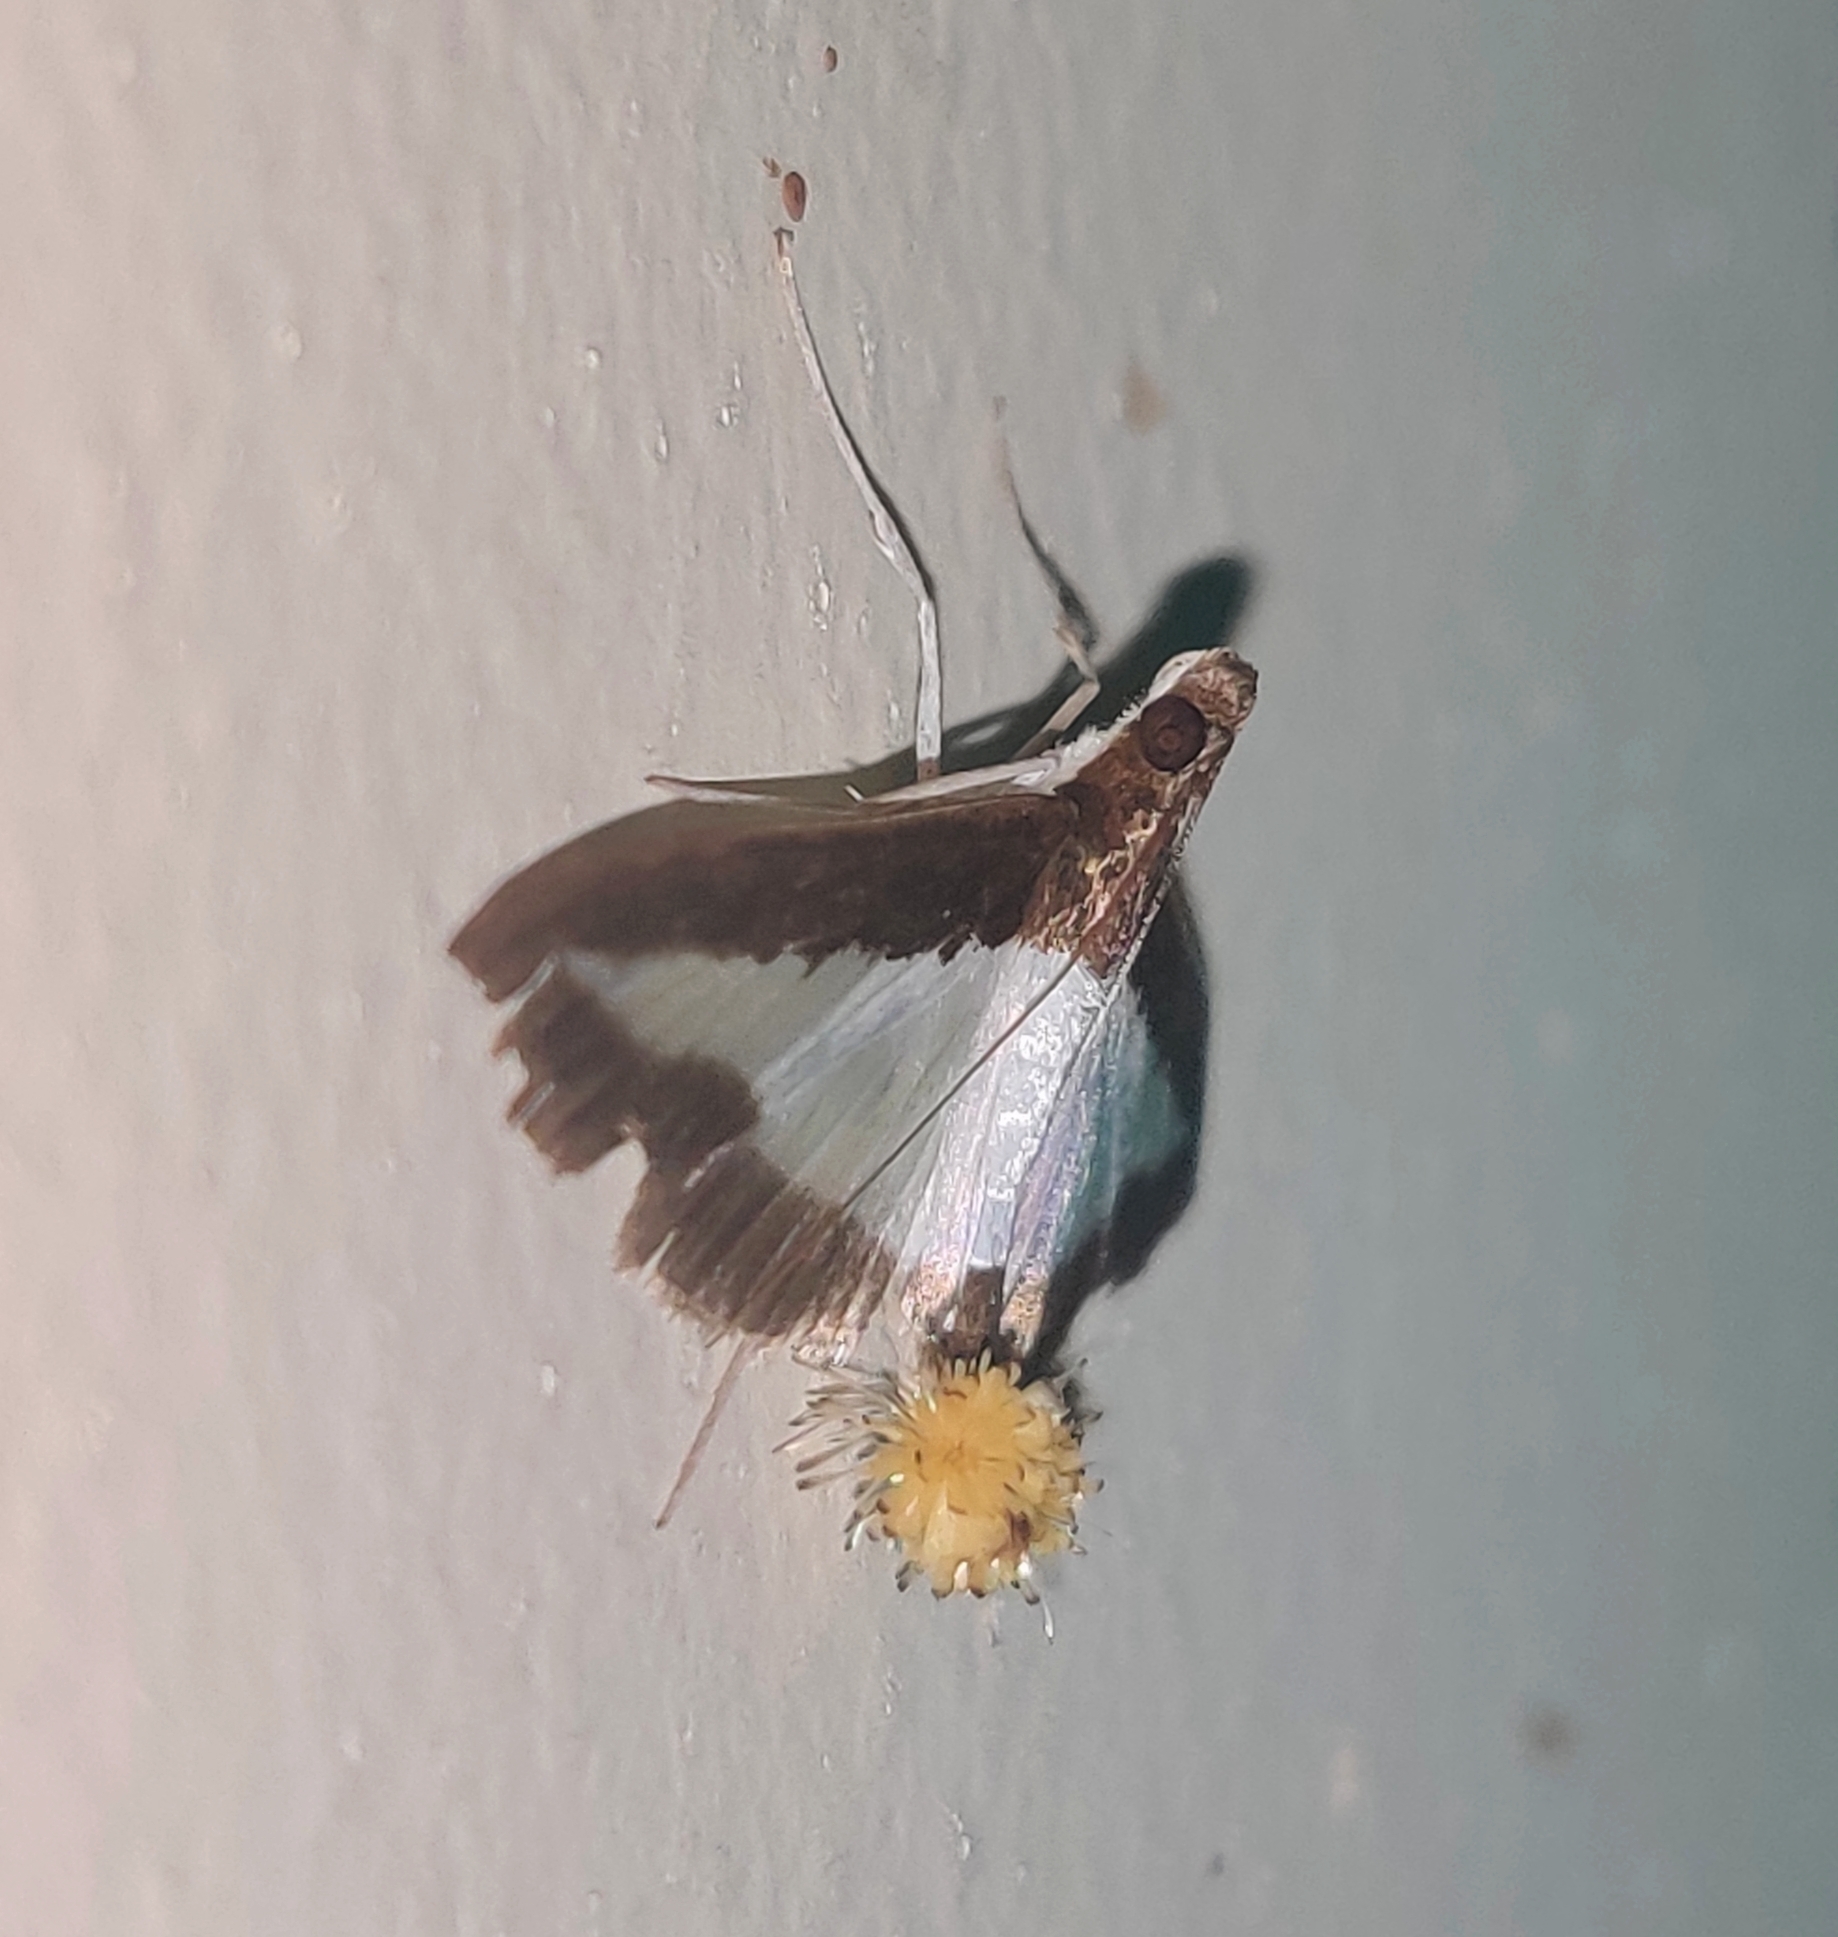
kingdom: Animalia
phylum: Arthropoda
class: Insecta
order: Lepidoptera
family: Crambidae
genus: Diaphania
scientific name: Diaphania indica
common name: Cucumber moth
